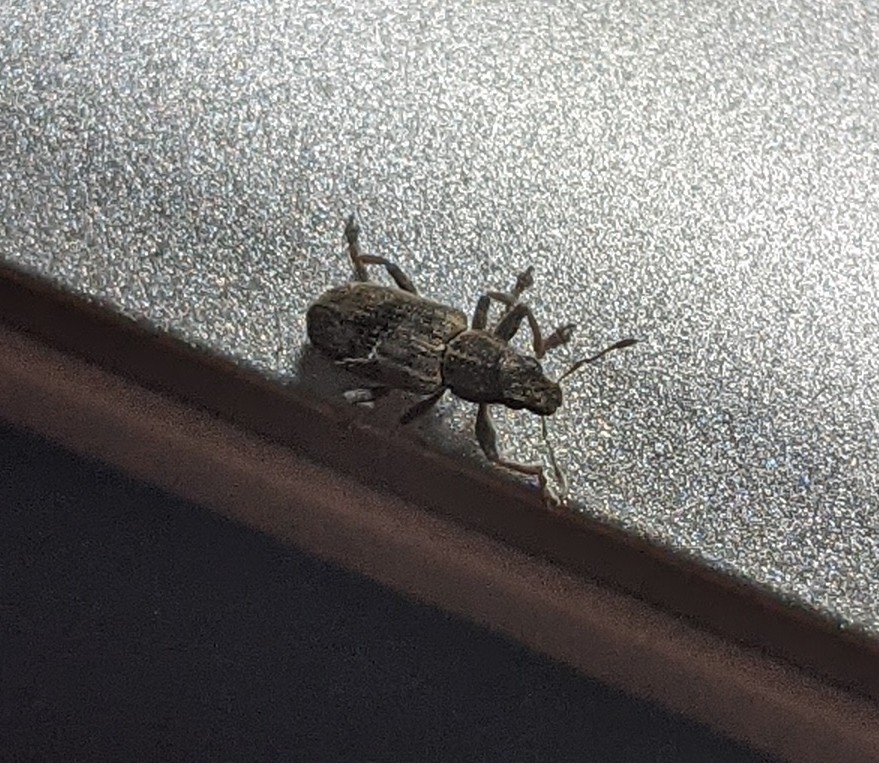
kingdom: Animalia
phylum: Arthropoda
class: Insecta
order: Coleoptera
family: Curculionidae
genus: Sitona
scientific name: Sitona lineatus
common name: Weevil
